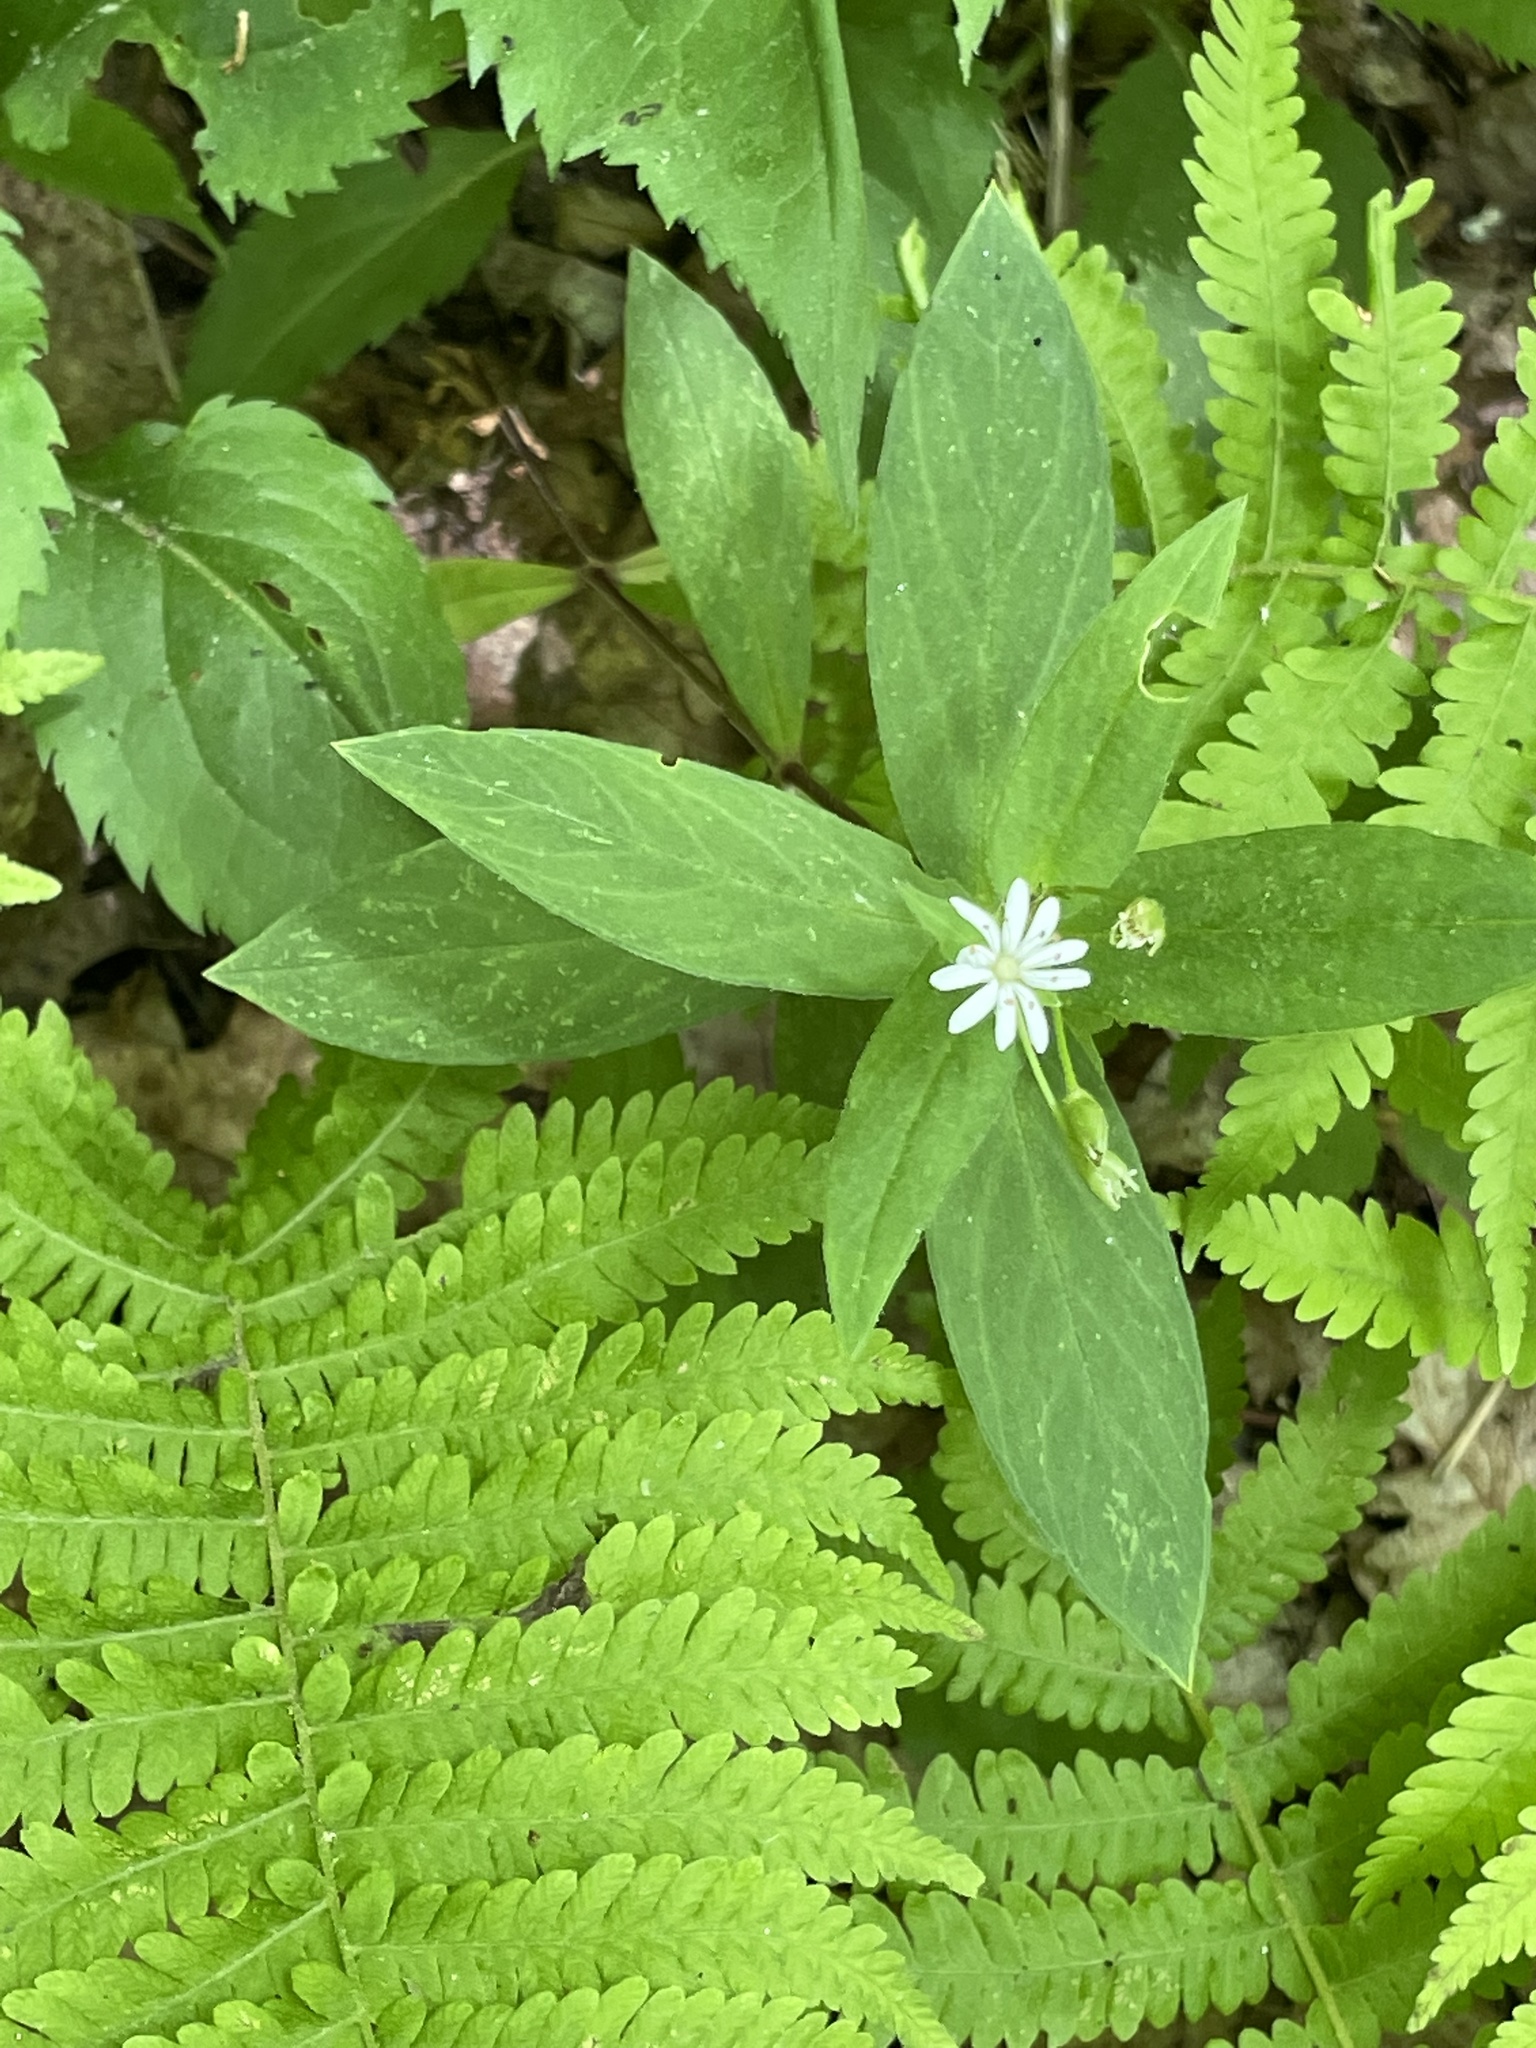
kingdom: Plantae
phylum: Tracheophyta
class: Magnoliopsida
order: Caryophyllales
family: Caryophyllaceae
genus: Stellaria
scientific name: Stellaria pubera
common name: Star chickweed
